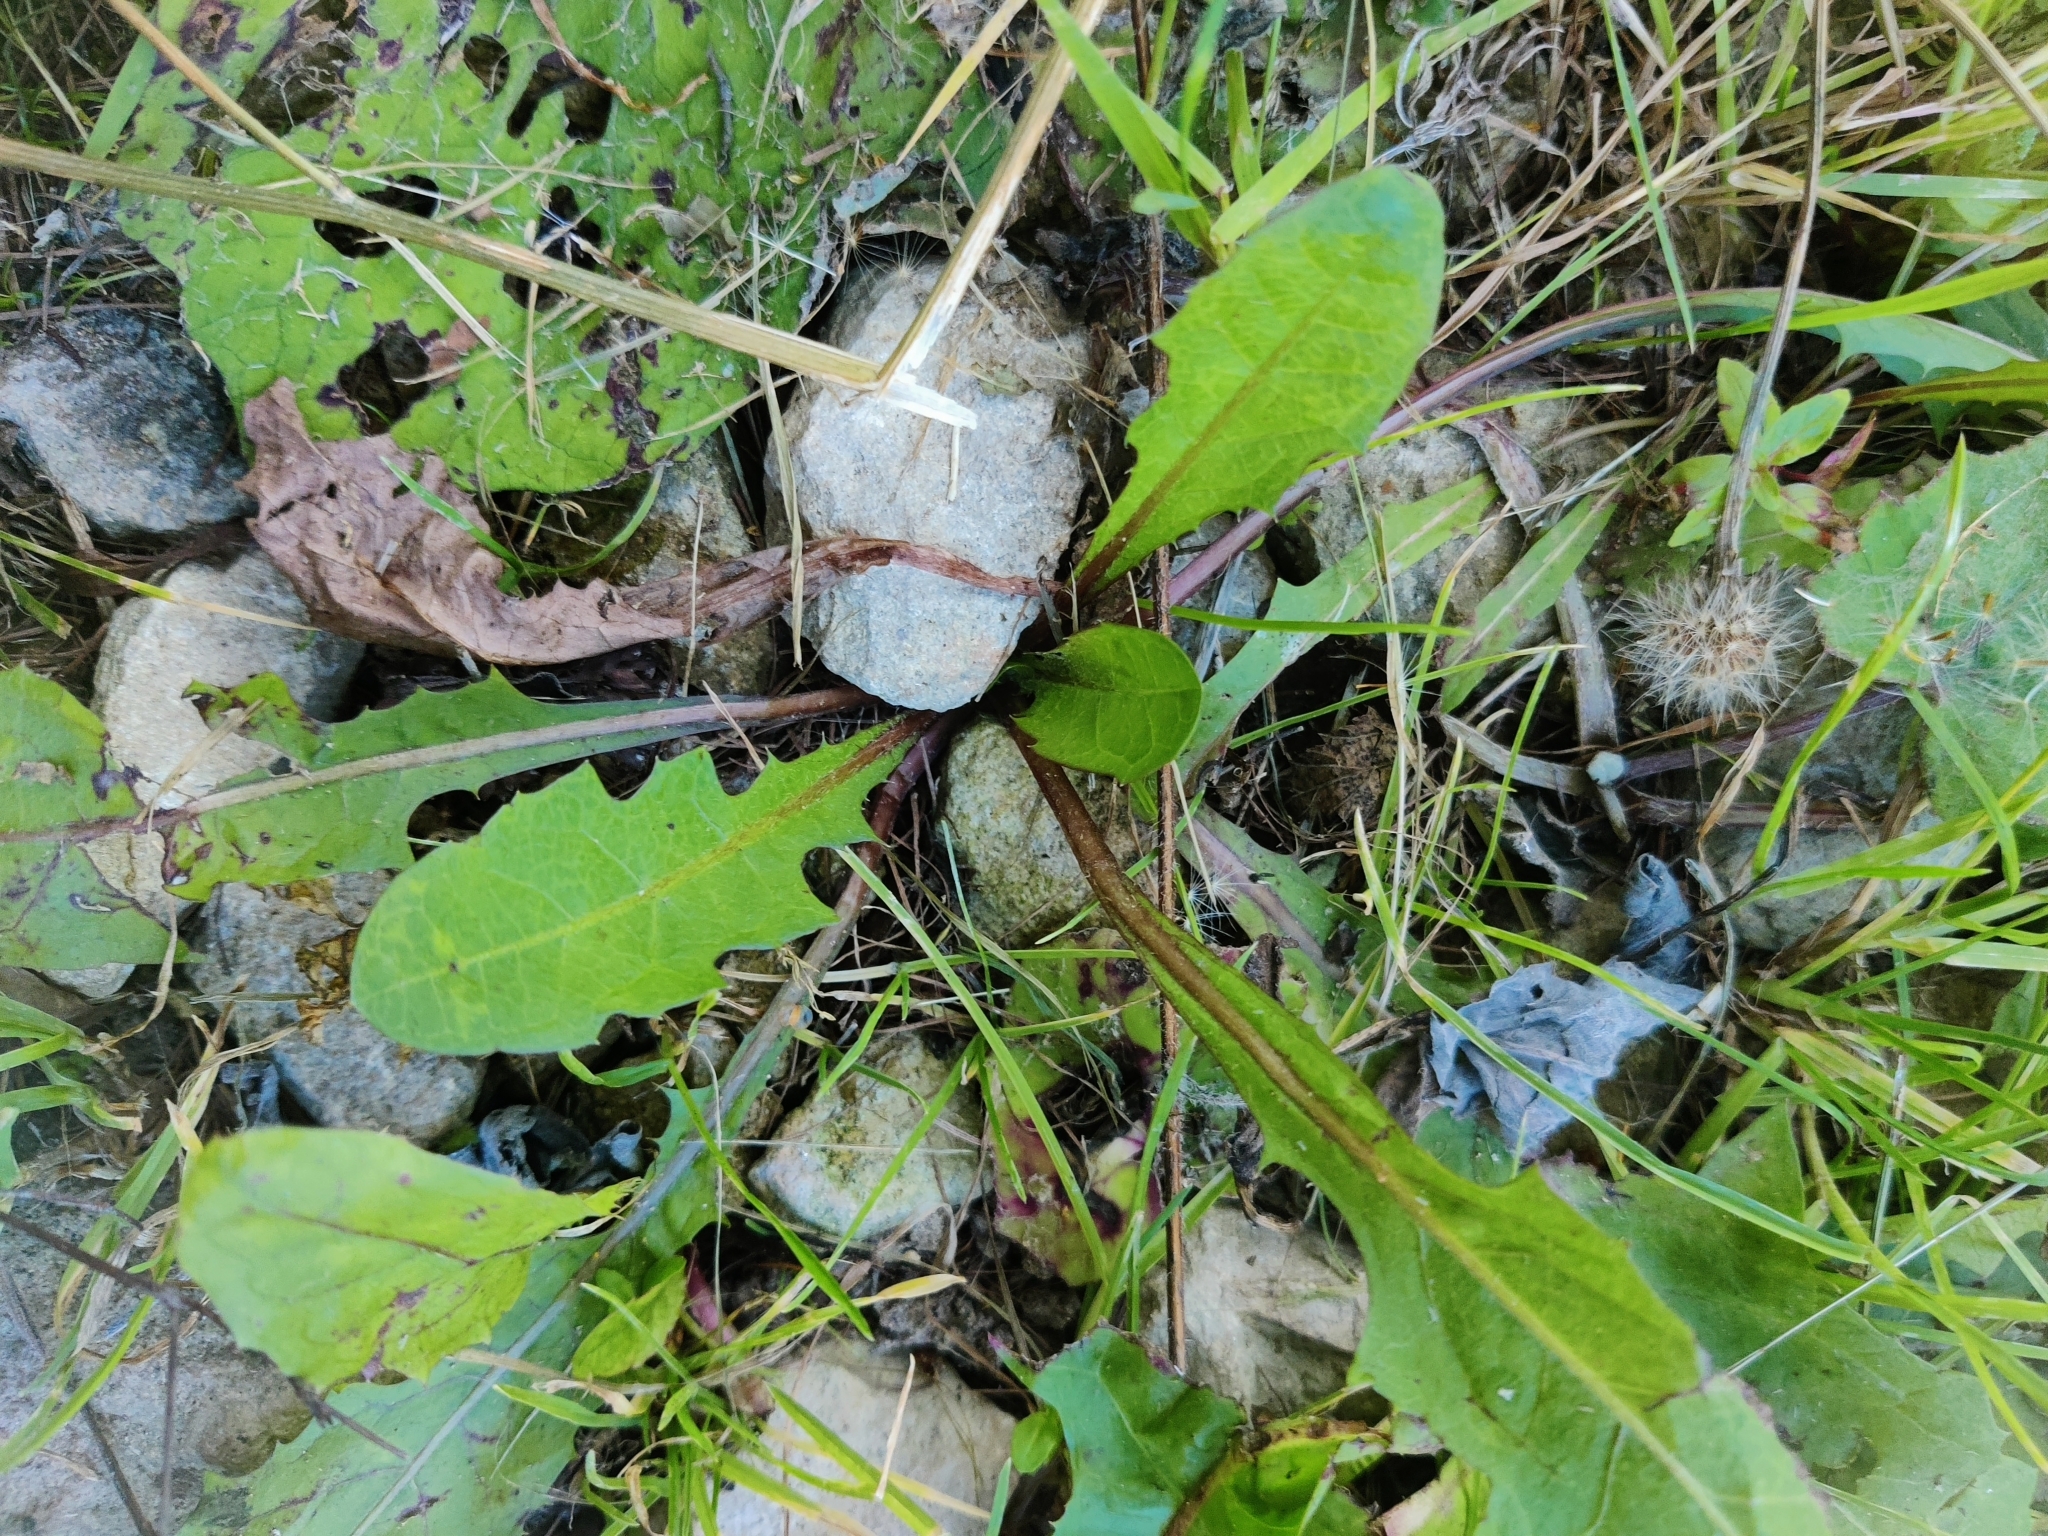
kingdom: Plantae
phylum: Tracheophyta
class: Magnoliopsida
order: Asterales
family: Asteraceae
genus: Taraxacum
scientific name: Taraxacum officinale
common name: Common dandelion
